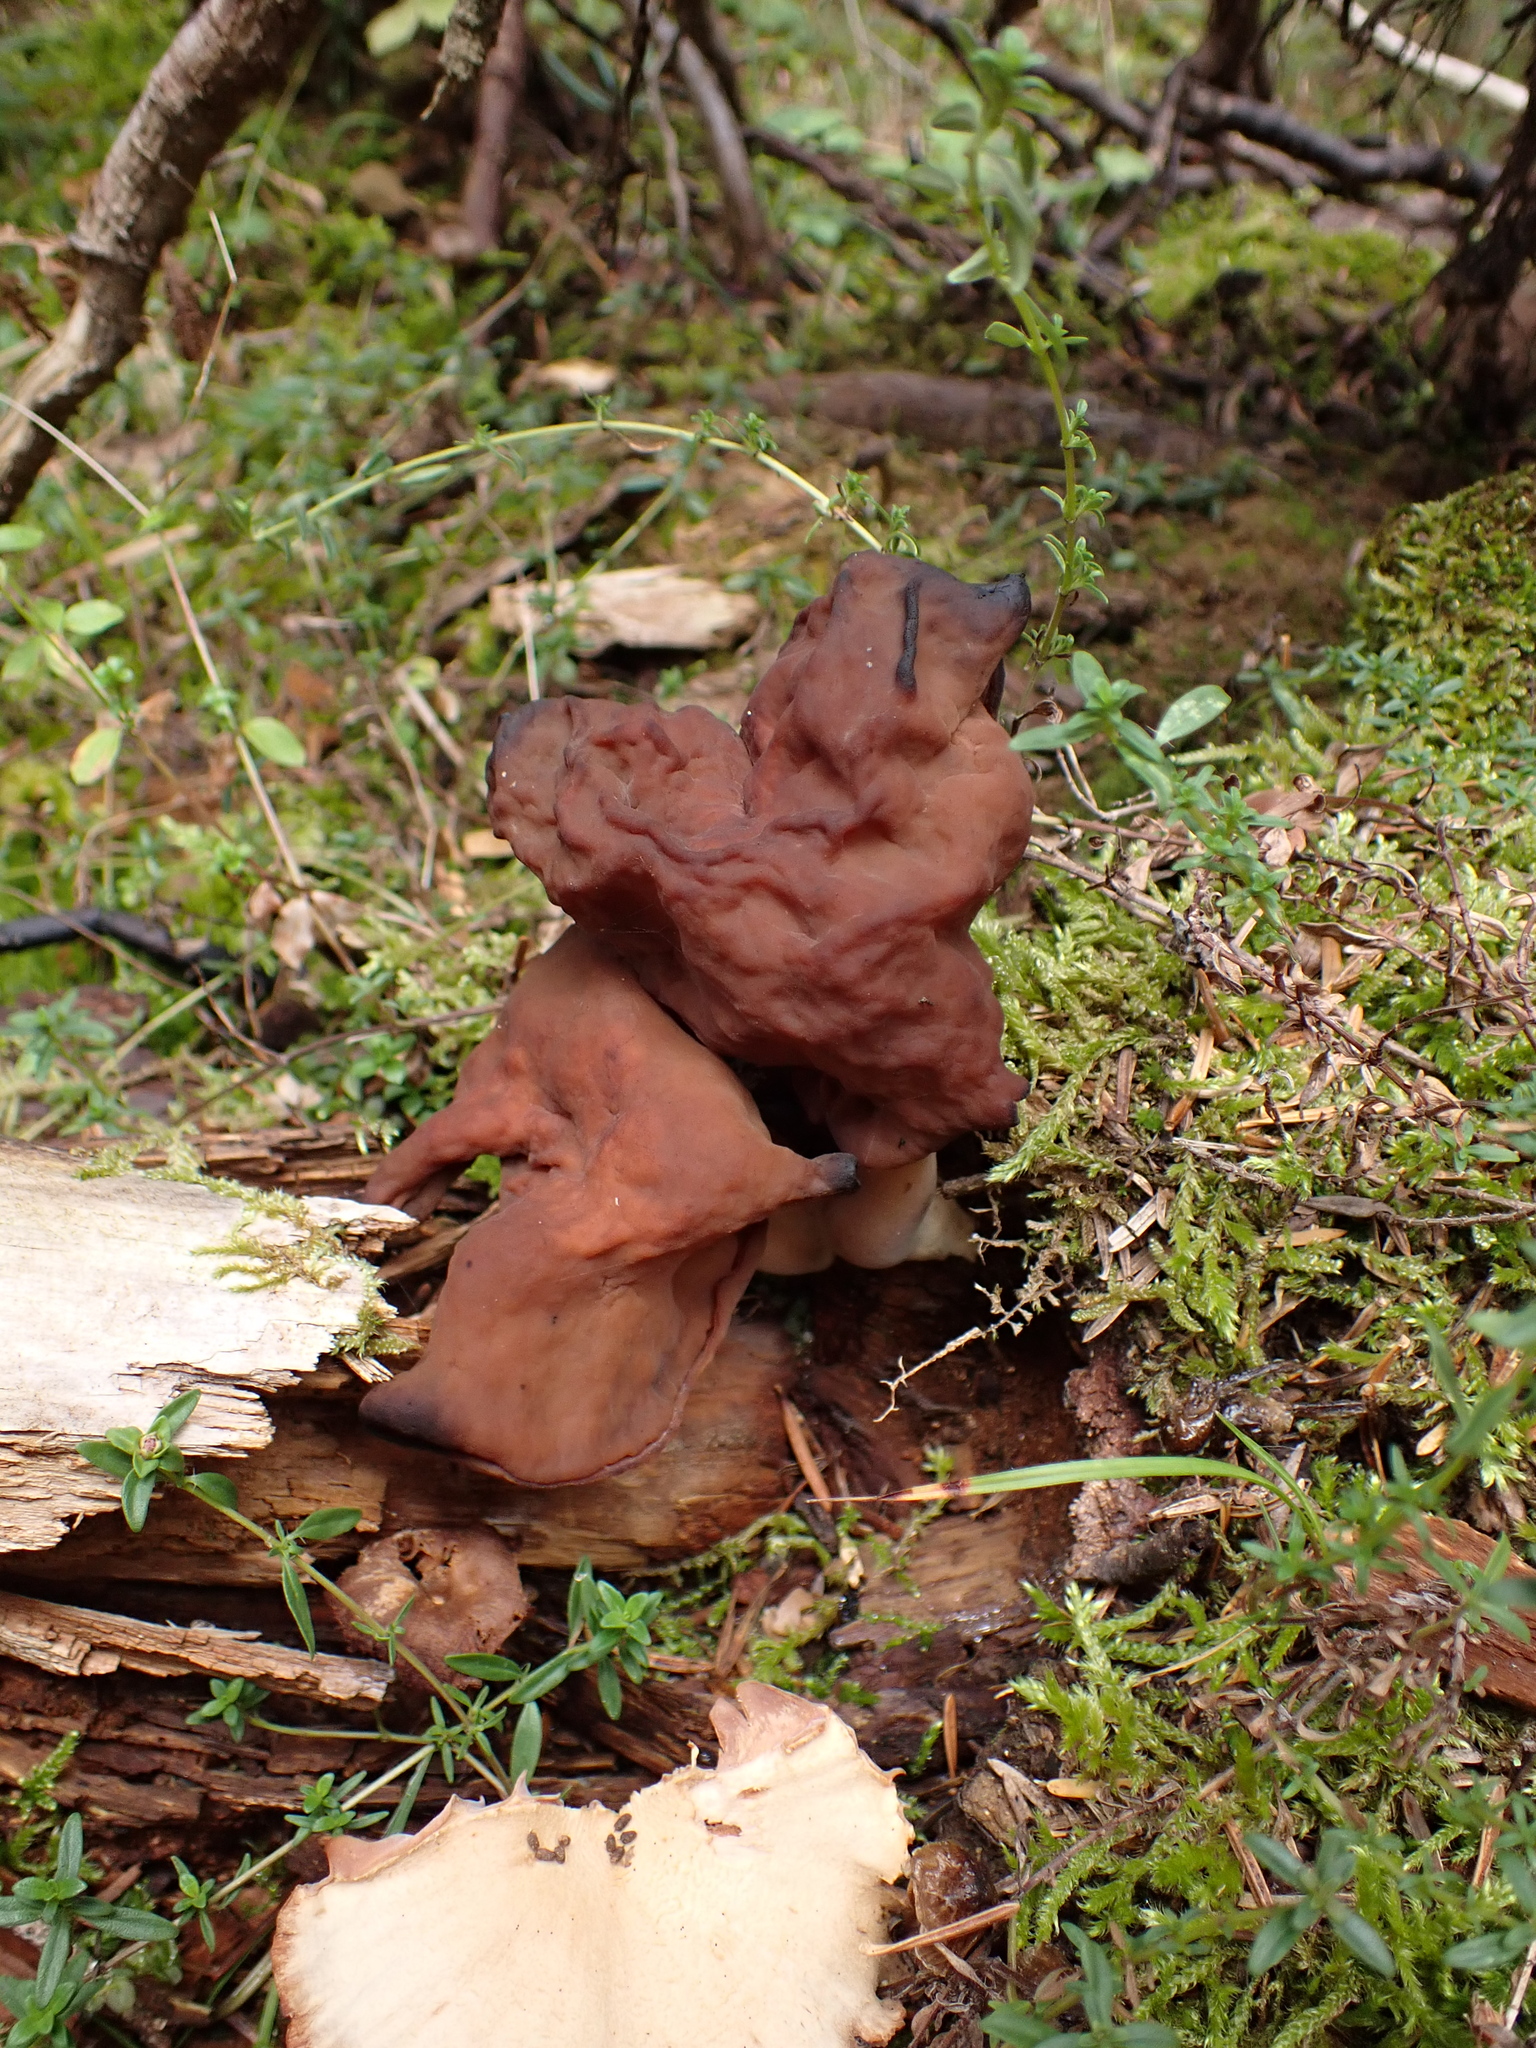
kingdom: Fungi
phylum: Ascomycota
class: Pezizomycetes
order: Pezizales
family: Discinaceae
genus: Gyromitra
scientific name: Gyromitra infula
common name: Pouched false morel
